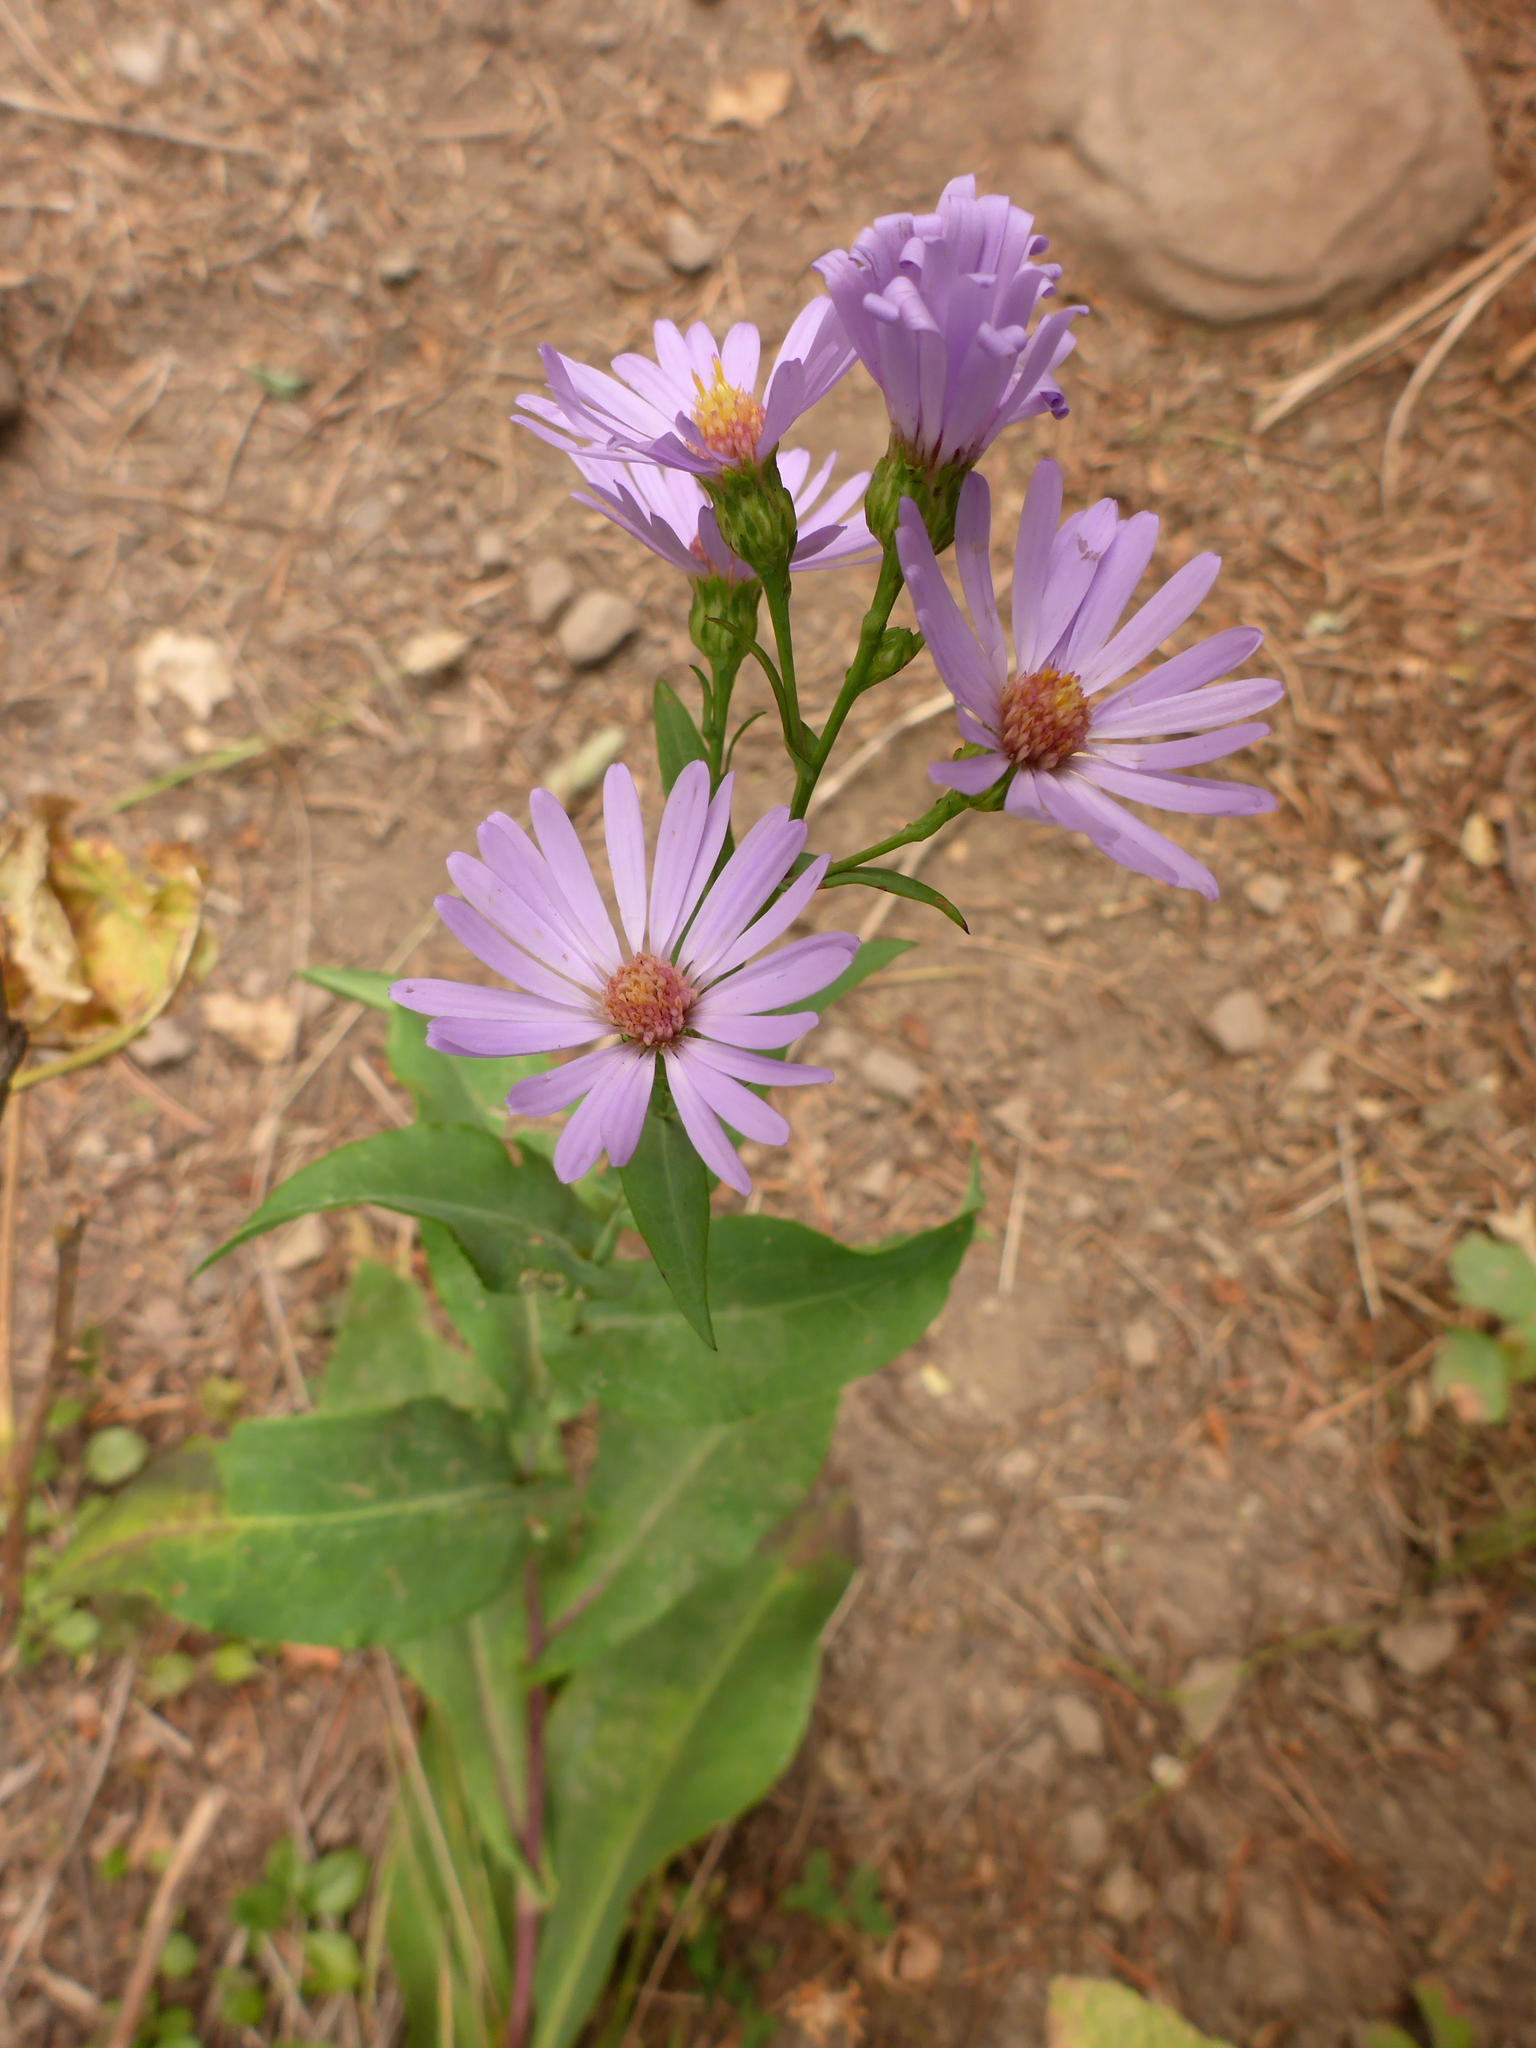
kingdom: Plantae
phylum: Tracheophyta
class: Magnoliopsida
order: Asterales
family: Asteraceae
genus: Symphyotrichum
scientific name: Symphyotrichum laeve
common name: Glaucous aster
